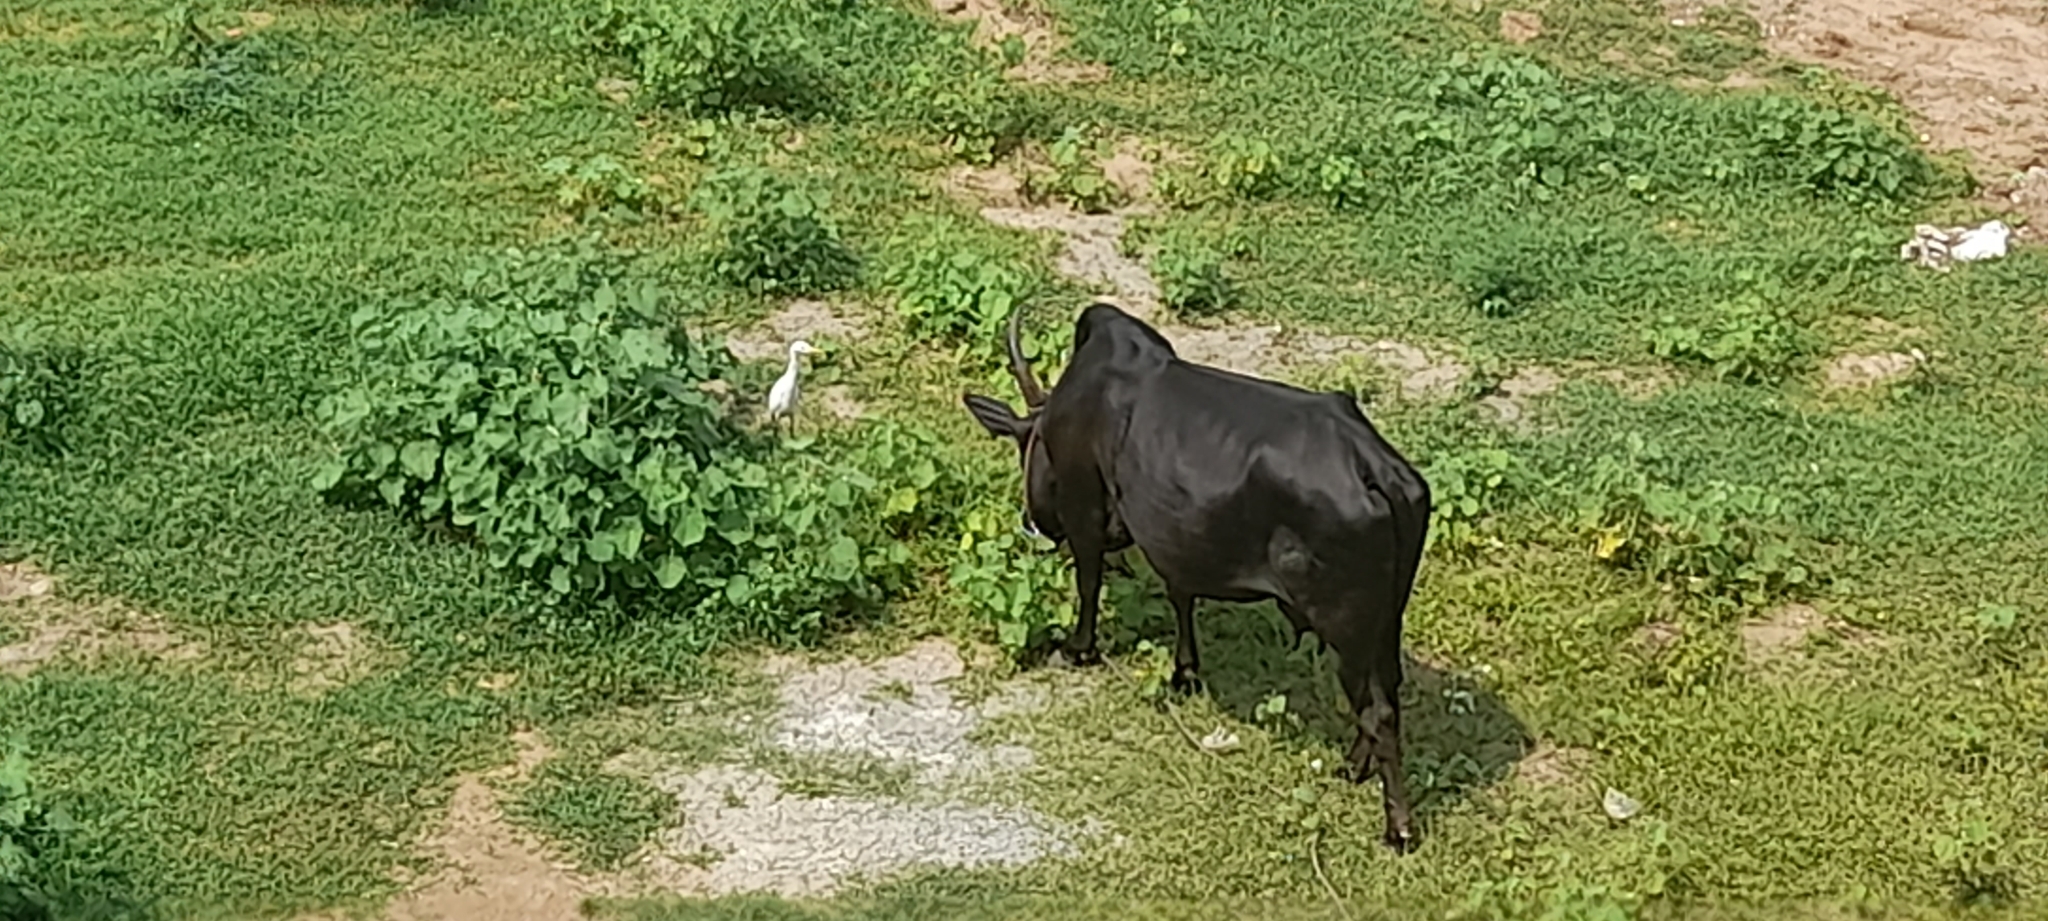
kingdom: Animalia
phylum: Chordata
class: Aves
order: Pelecaniformes
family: Ardeidae
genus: Bubulcus
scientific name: Bubulcus coromandus
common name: Eastern cattle egret
